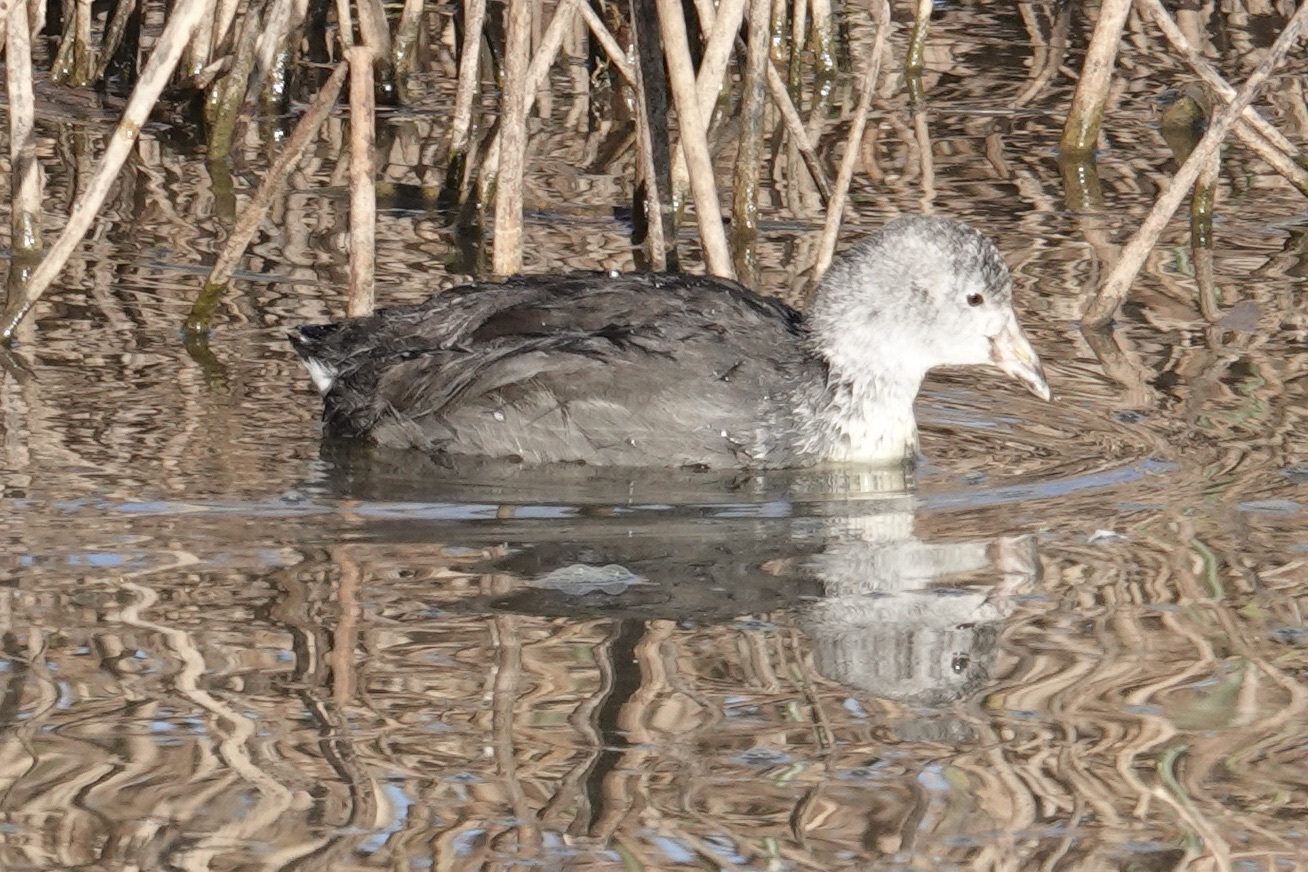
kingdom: Animalia
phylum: Chordata
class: Aves
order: Gruiformes
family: Rallidae
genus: Fulica
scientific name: Fulica americana
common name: American coot
